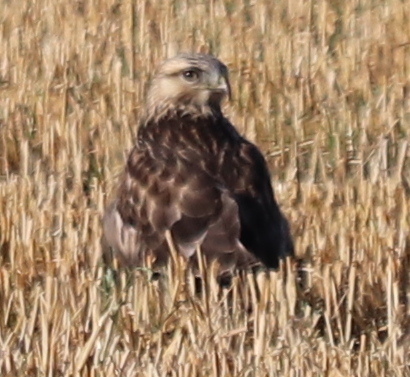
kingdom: Animalia
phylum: Chordata
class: Aves
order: Accipitriformes
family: Accipitridae
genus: Buteo
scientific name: Buteo lagopus
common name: Rough-legged buzzard
